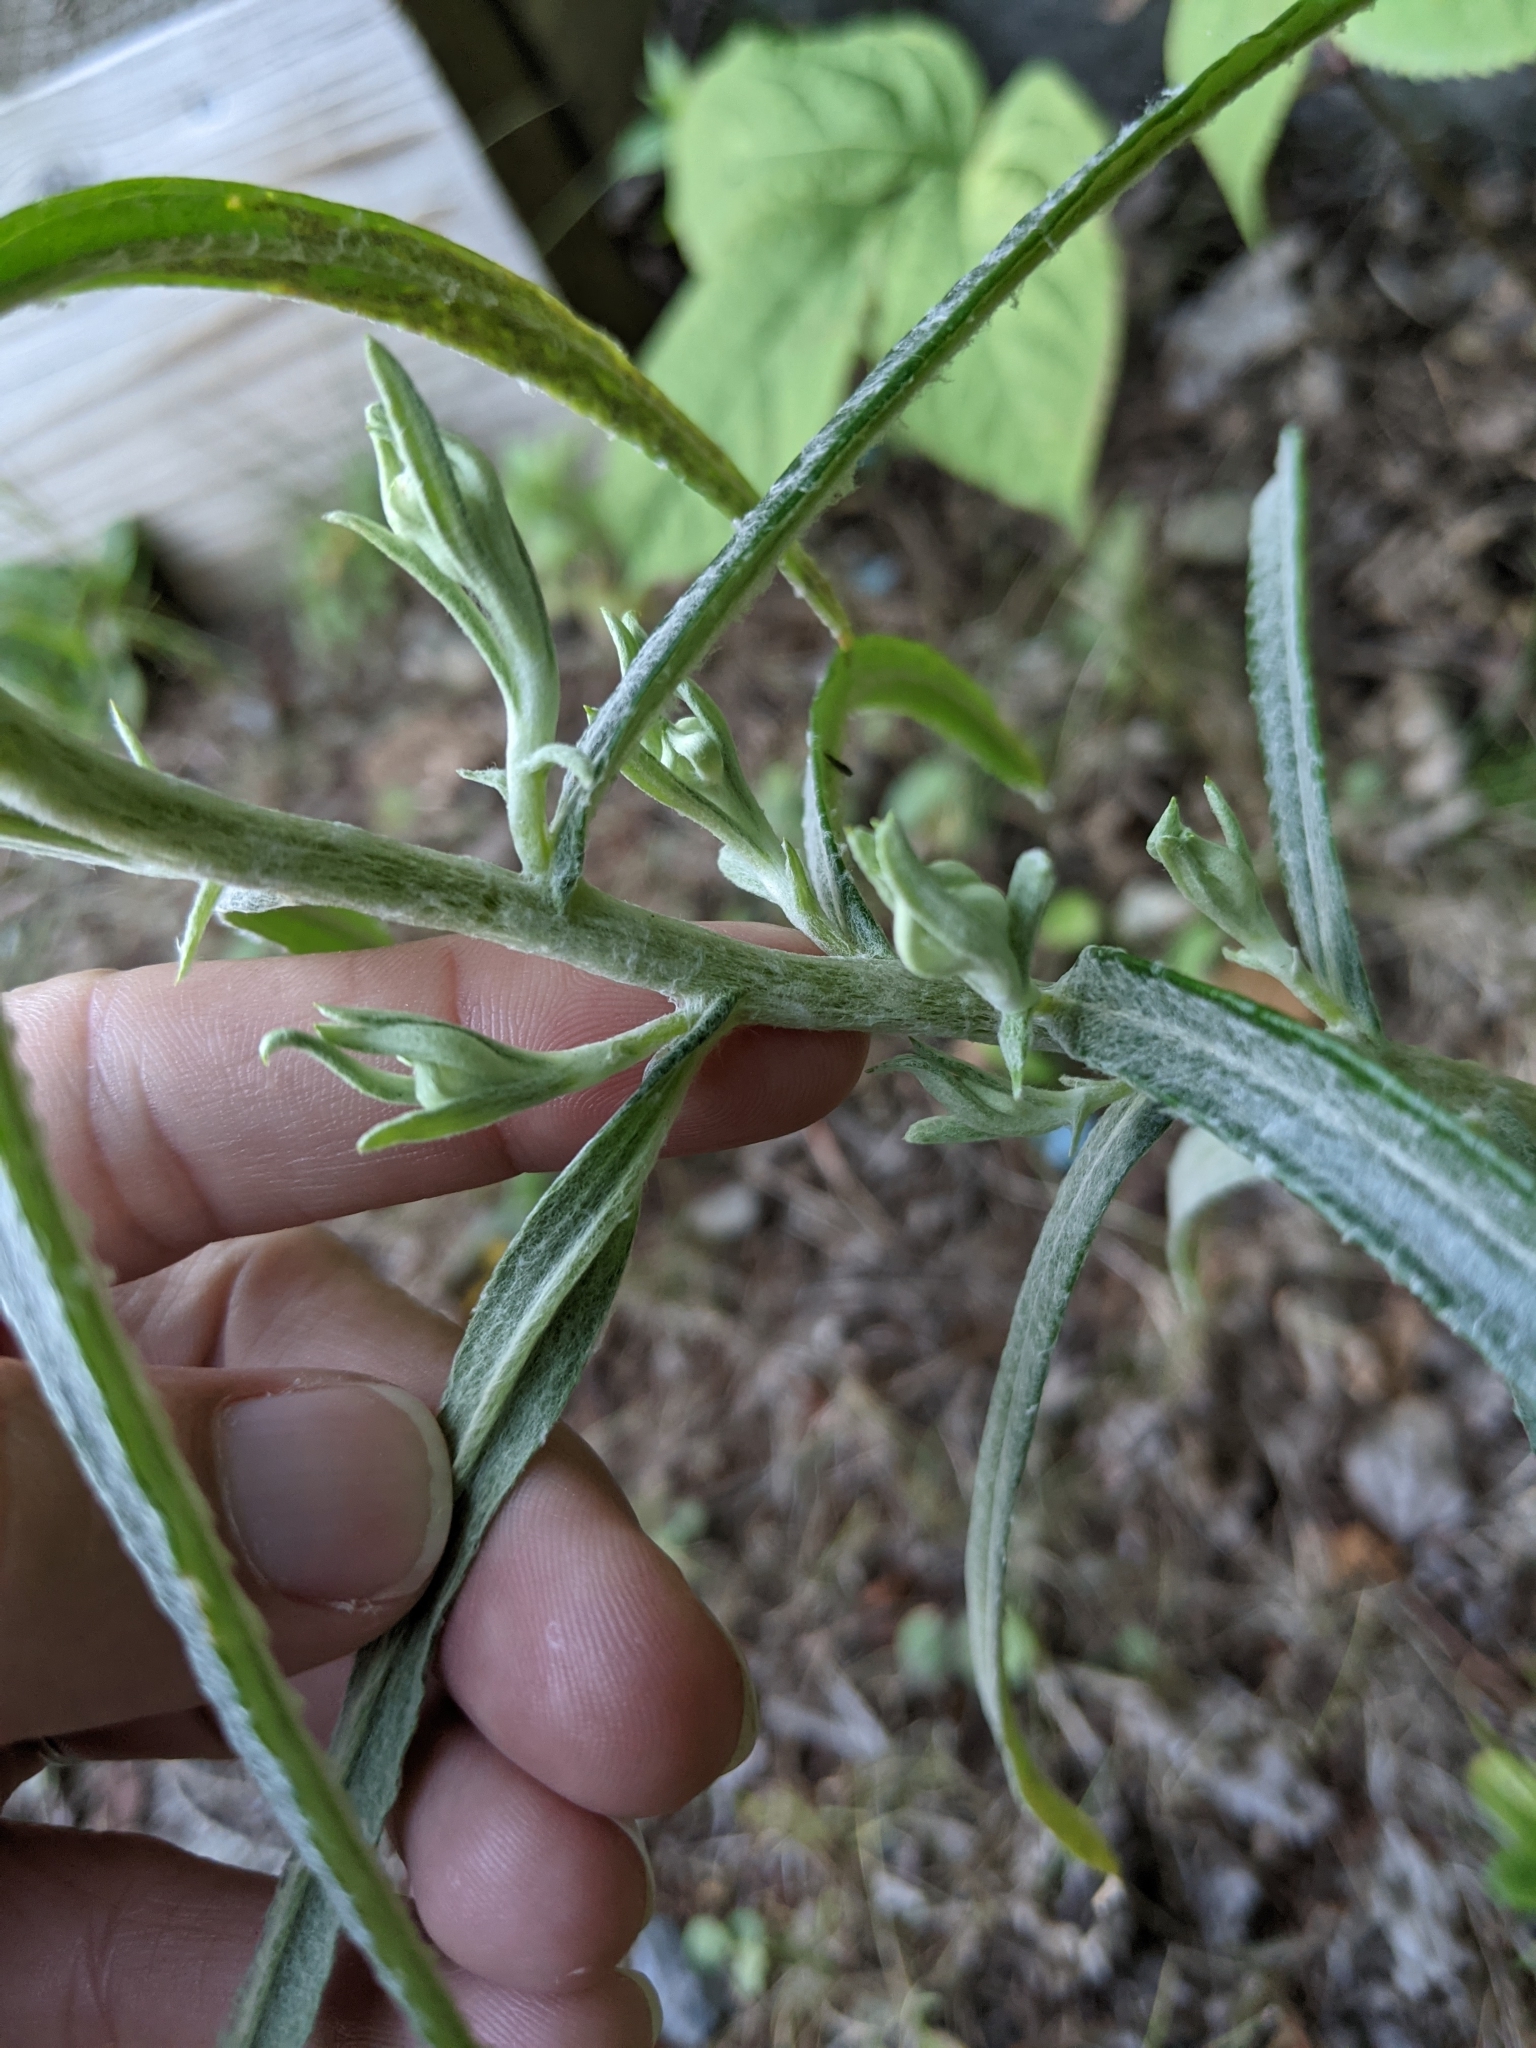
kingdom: Plantae
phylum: Tracheophyta
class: Magnoliopsida
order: Asterales
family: Asteraceae
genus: Anaphalis
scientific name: Anaphalis margaritacea
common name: Pearly everlasting
